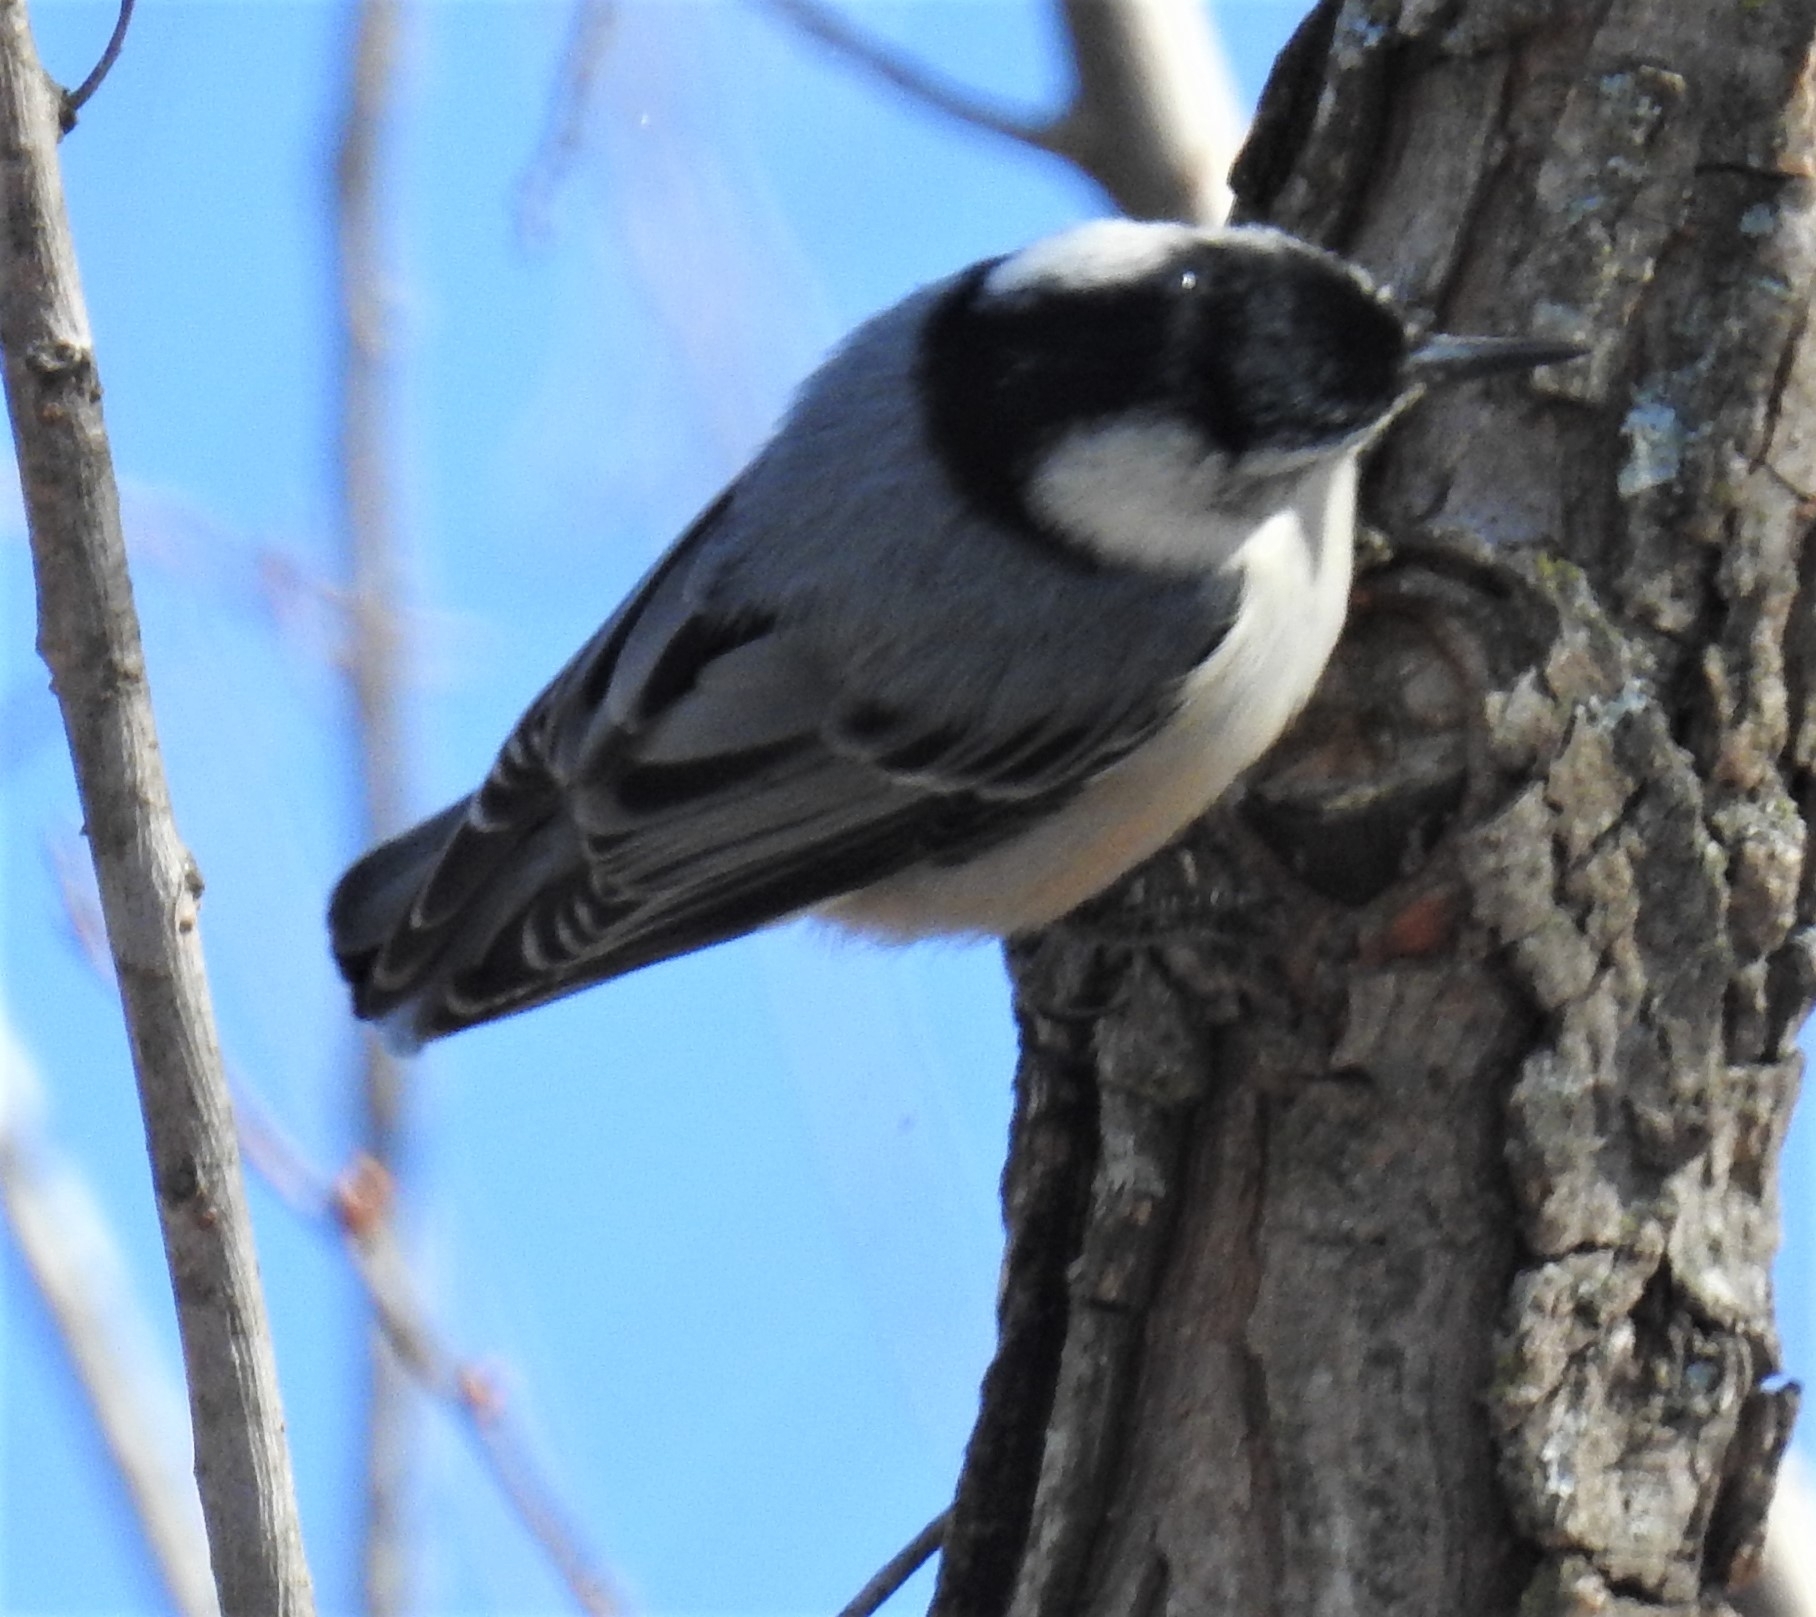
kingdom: Animalia
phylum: Chordata
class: Aves
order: Passeriformes
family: Sittidae
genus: Sitta
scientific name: Sitta carolinensis
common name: White-breasted nuthatch
